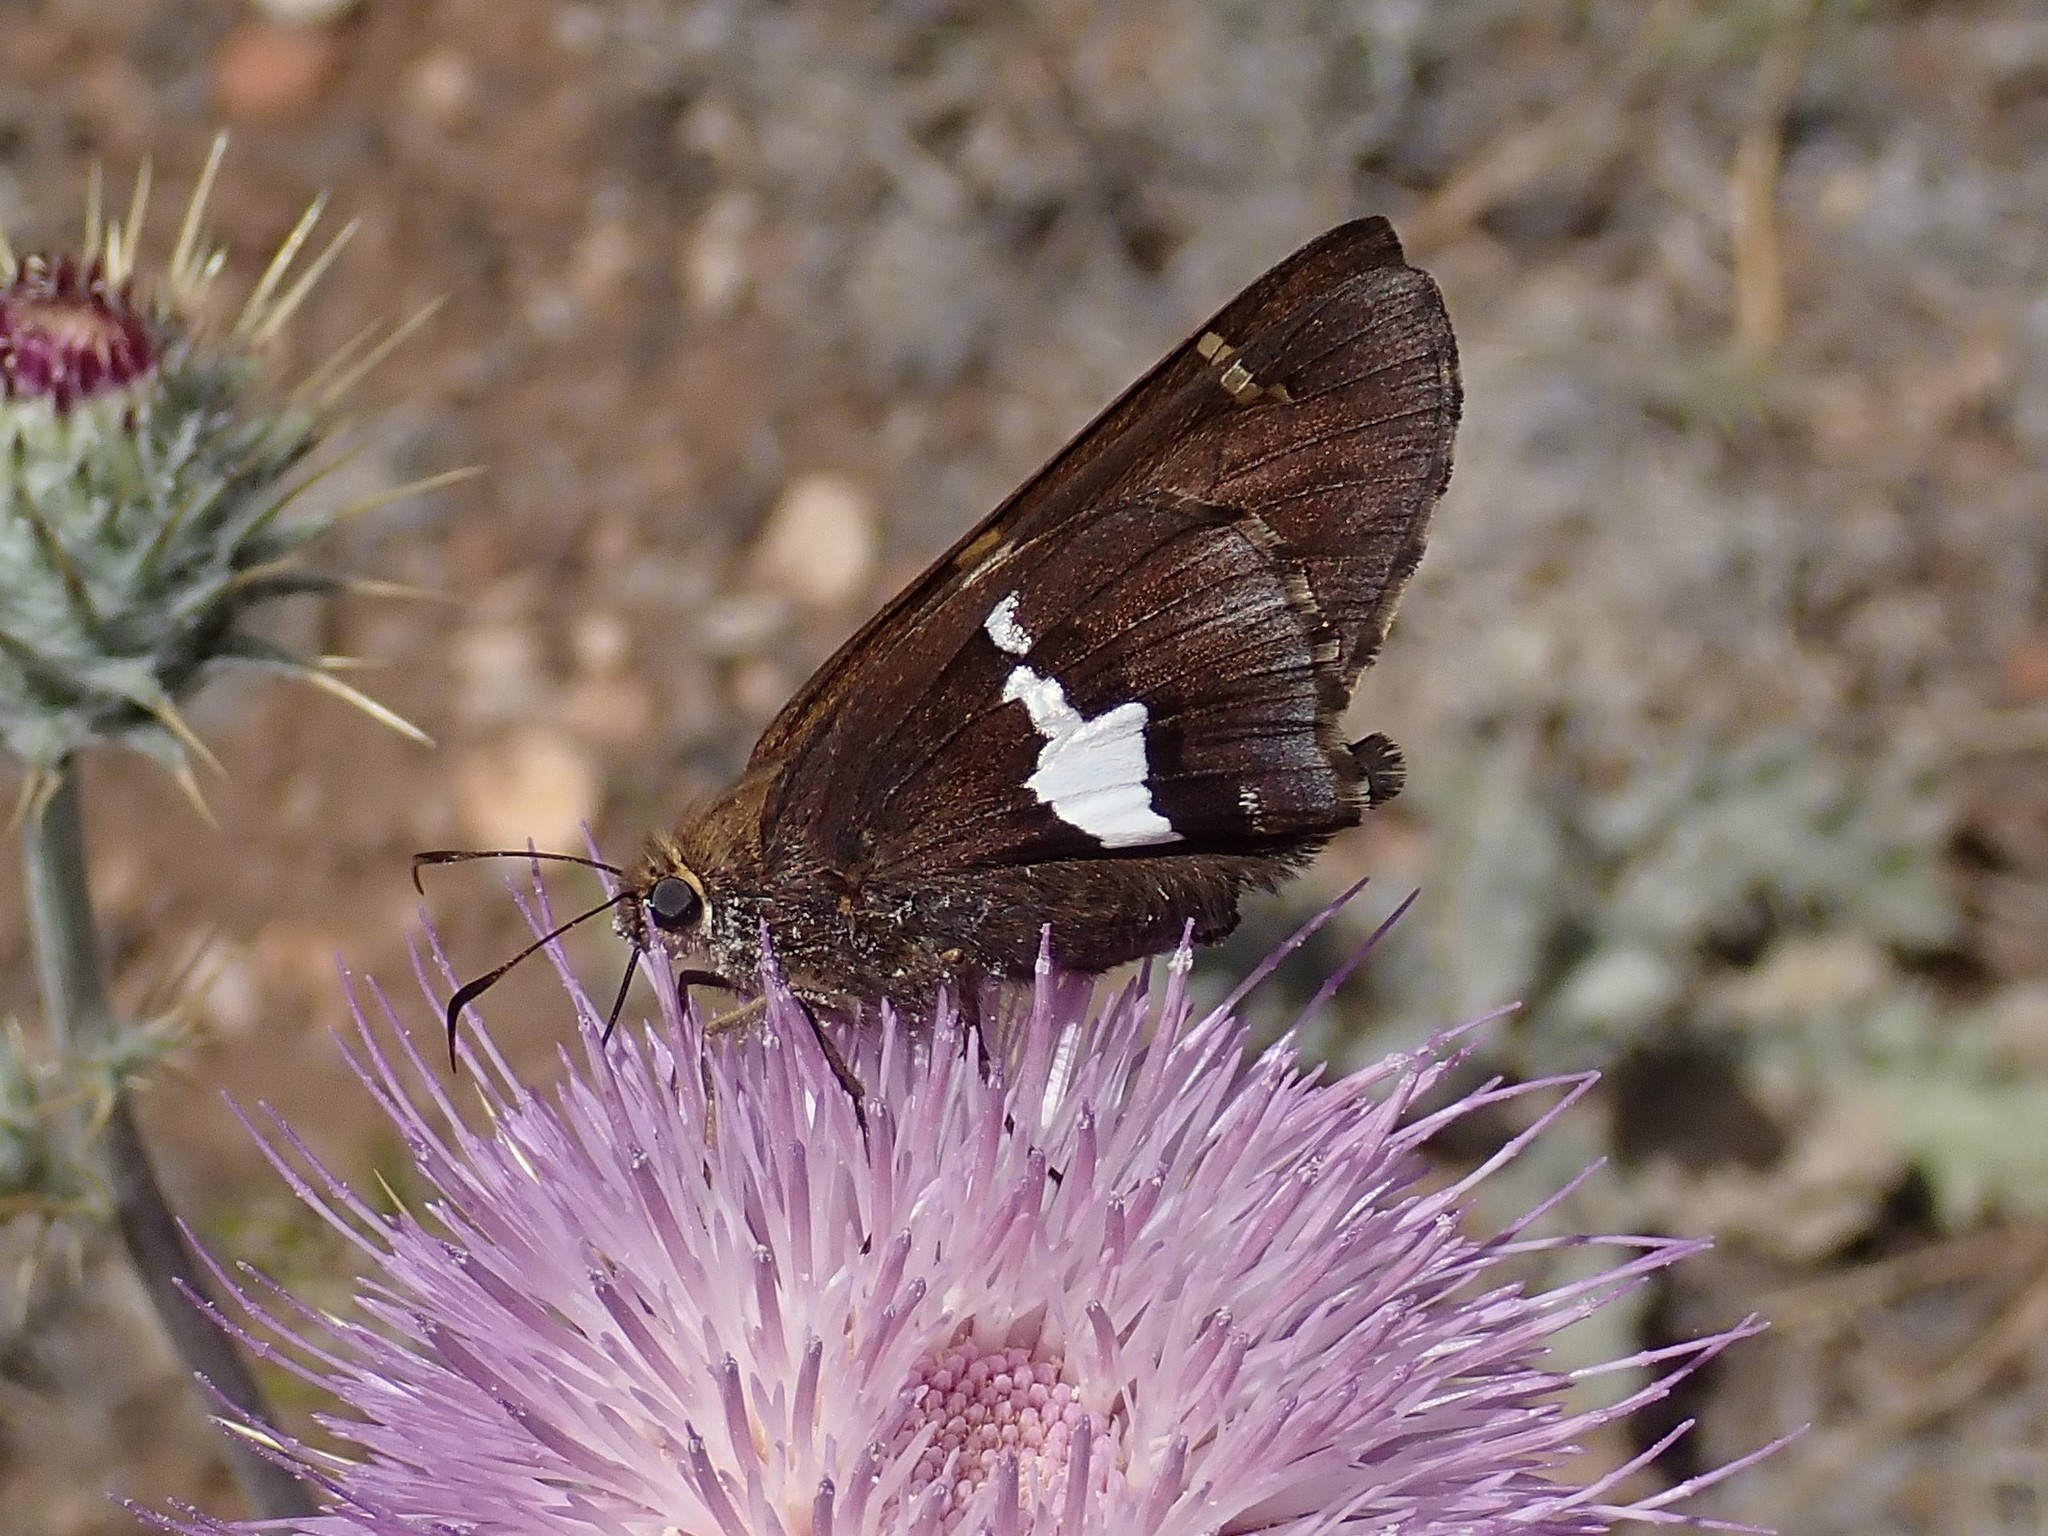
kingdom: Animalia
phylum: Arthropoda
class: Insecta
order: Lepidoptera
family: Hesperiidae
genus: Epargyreus
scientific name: Epargyreus clarus
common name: Silver-spotted skipper
